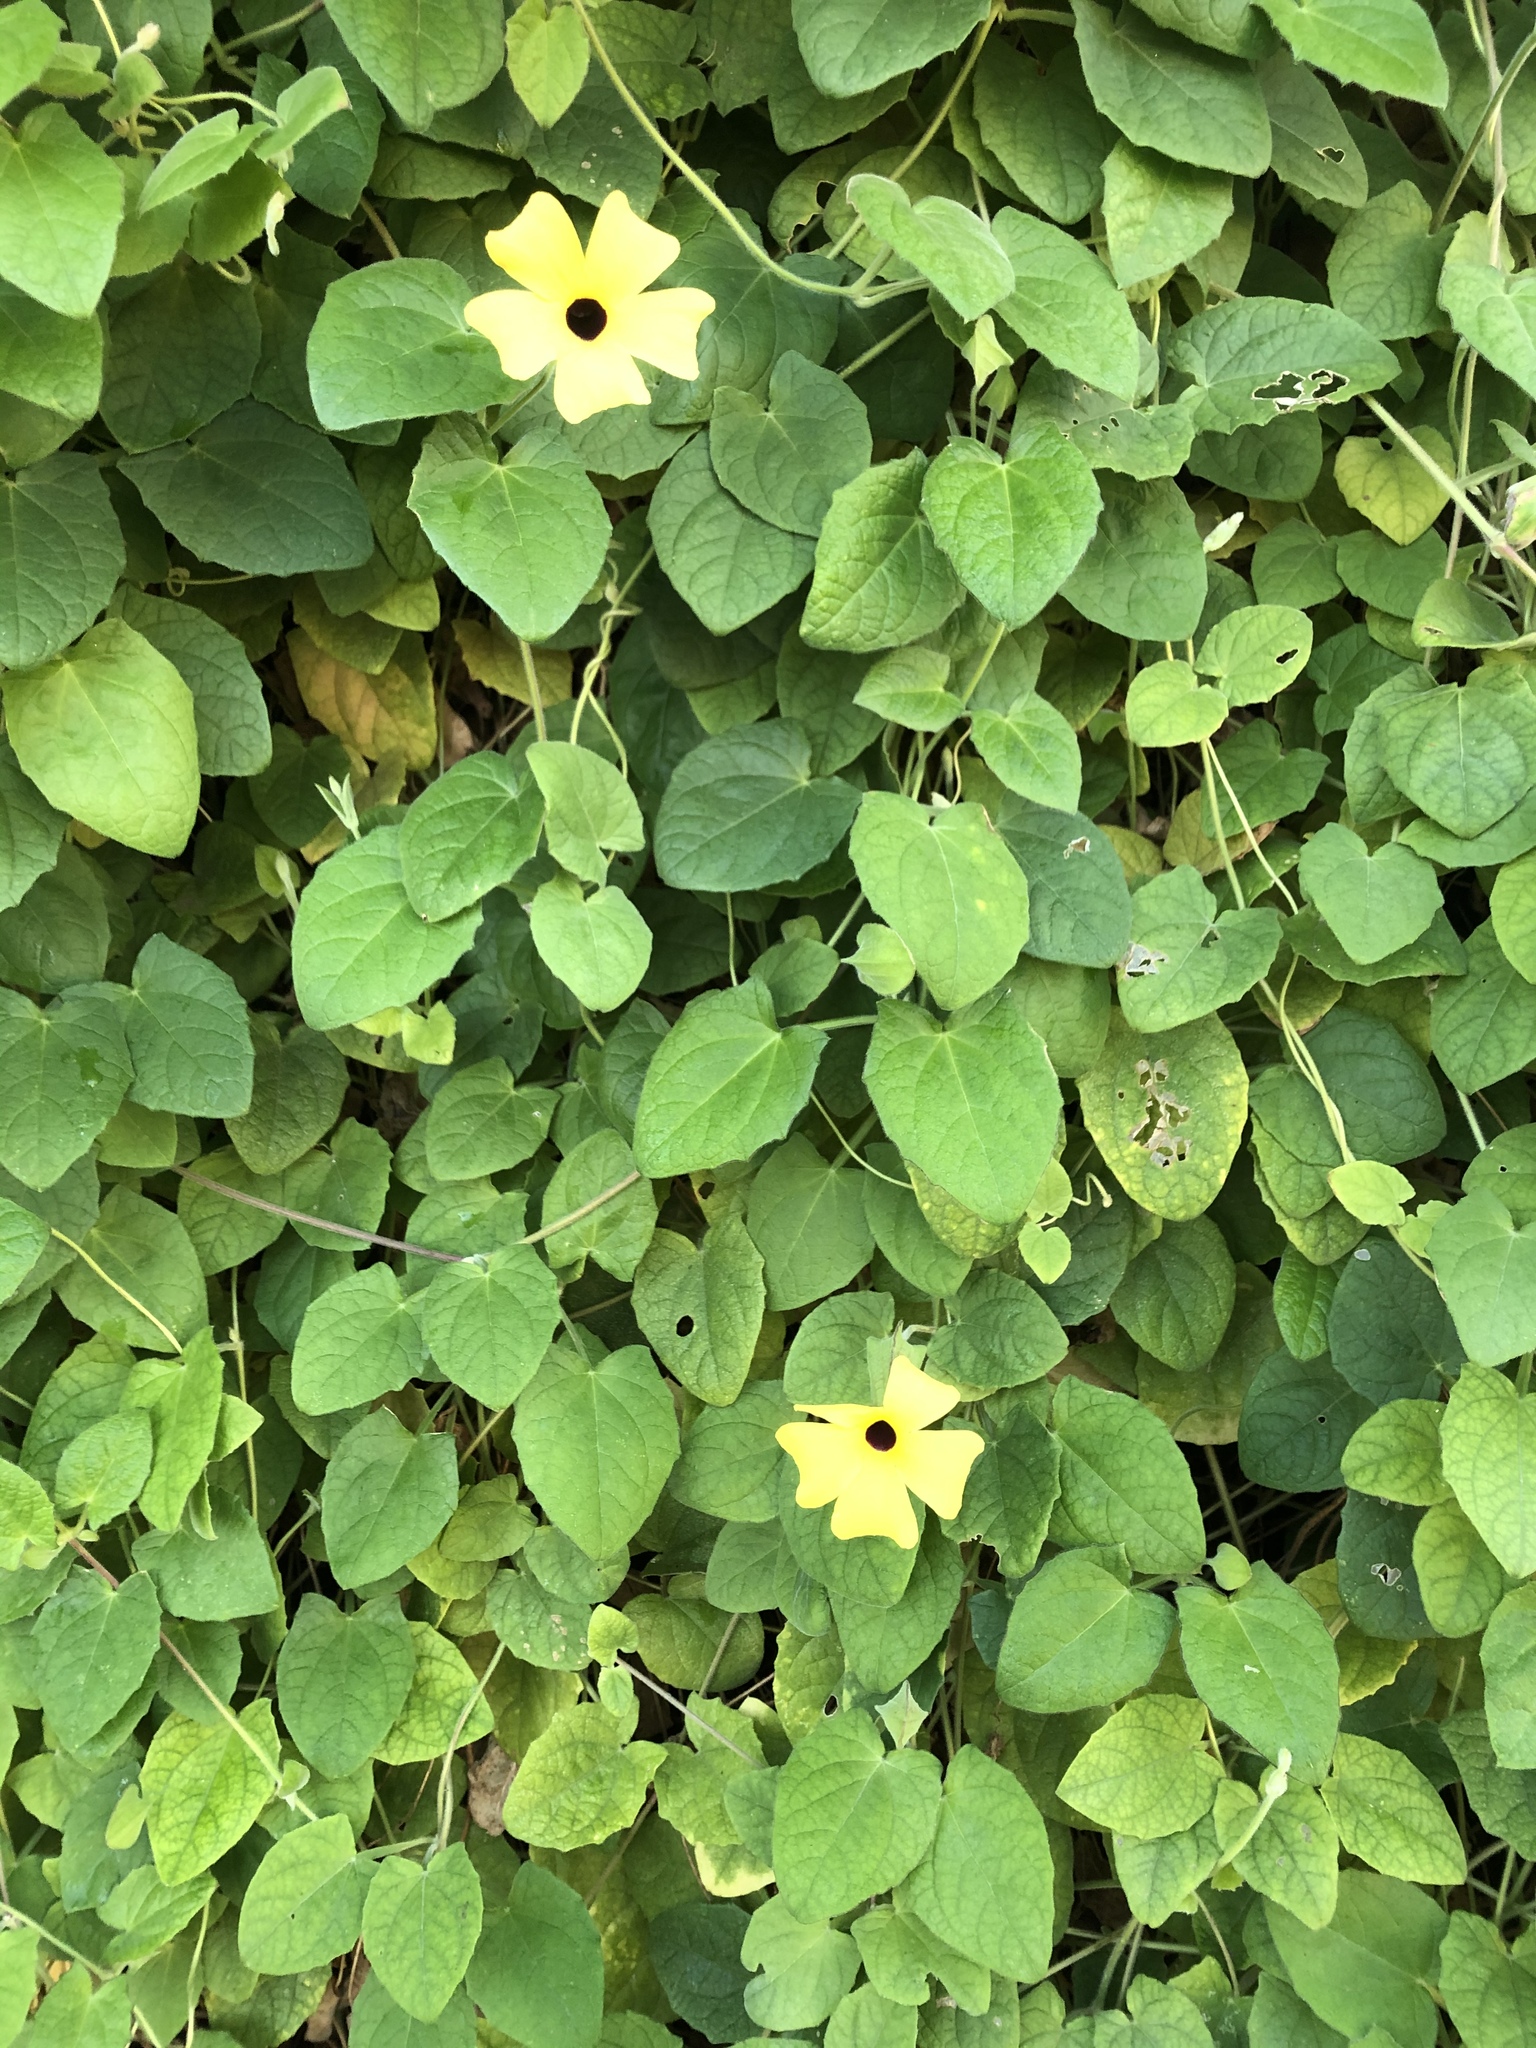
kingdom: Plantae
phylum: Tracheophyta
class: Magnoliopsida
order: Lamiales
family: Acanthaceae
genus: Thunbergia
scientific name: Thunbergia alata
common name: Blackeyed susan vine
